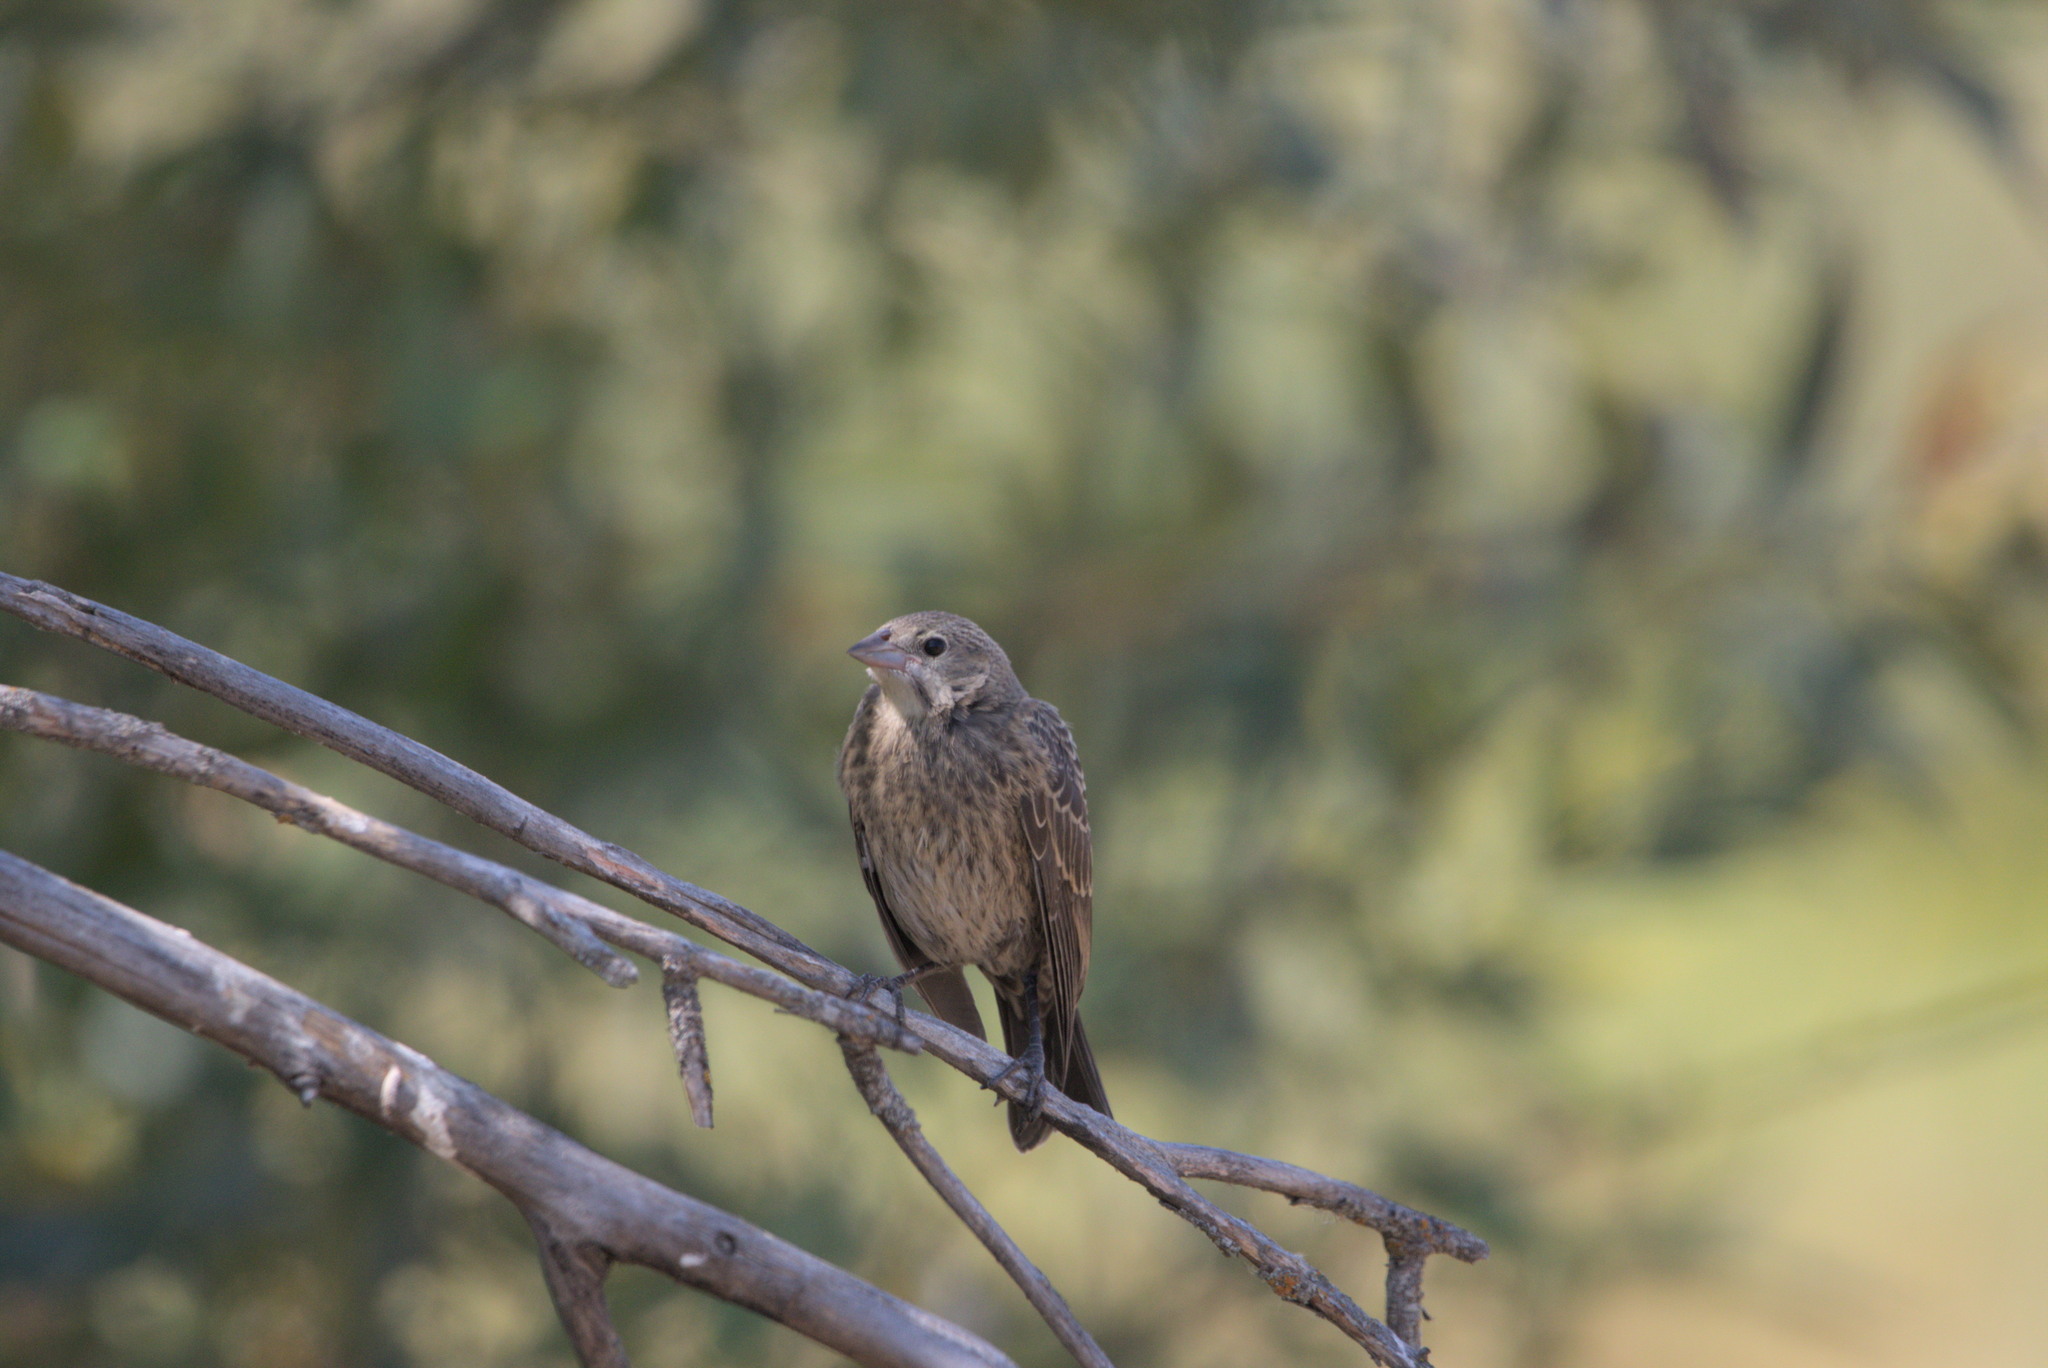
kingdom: Animalia
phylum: Chordata
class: Aves
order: Passeriformes
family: Icteridae
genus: Molothrus
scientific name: Molothrus ater
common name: Brown-headed cowbird
